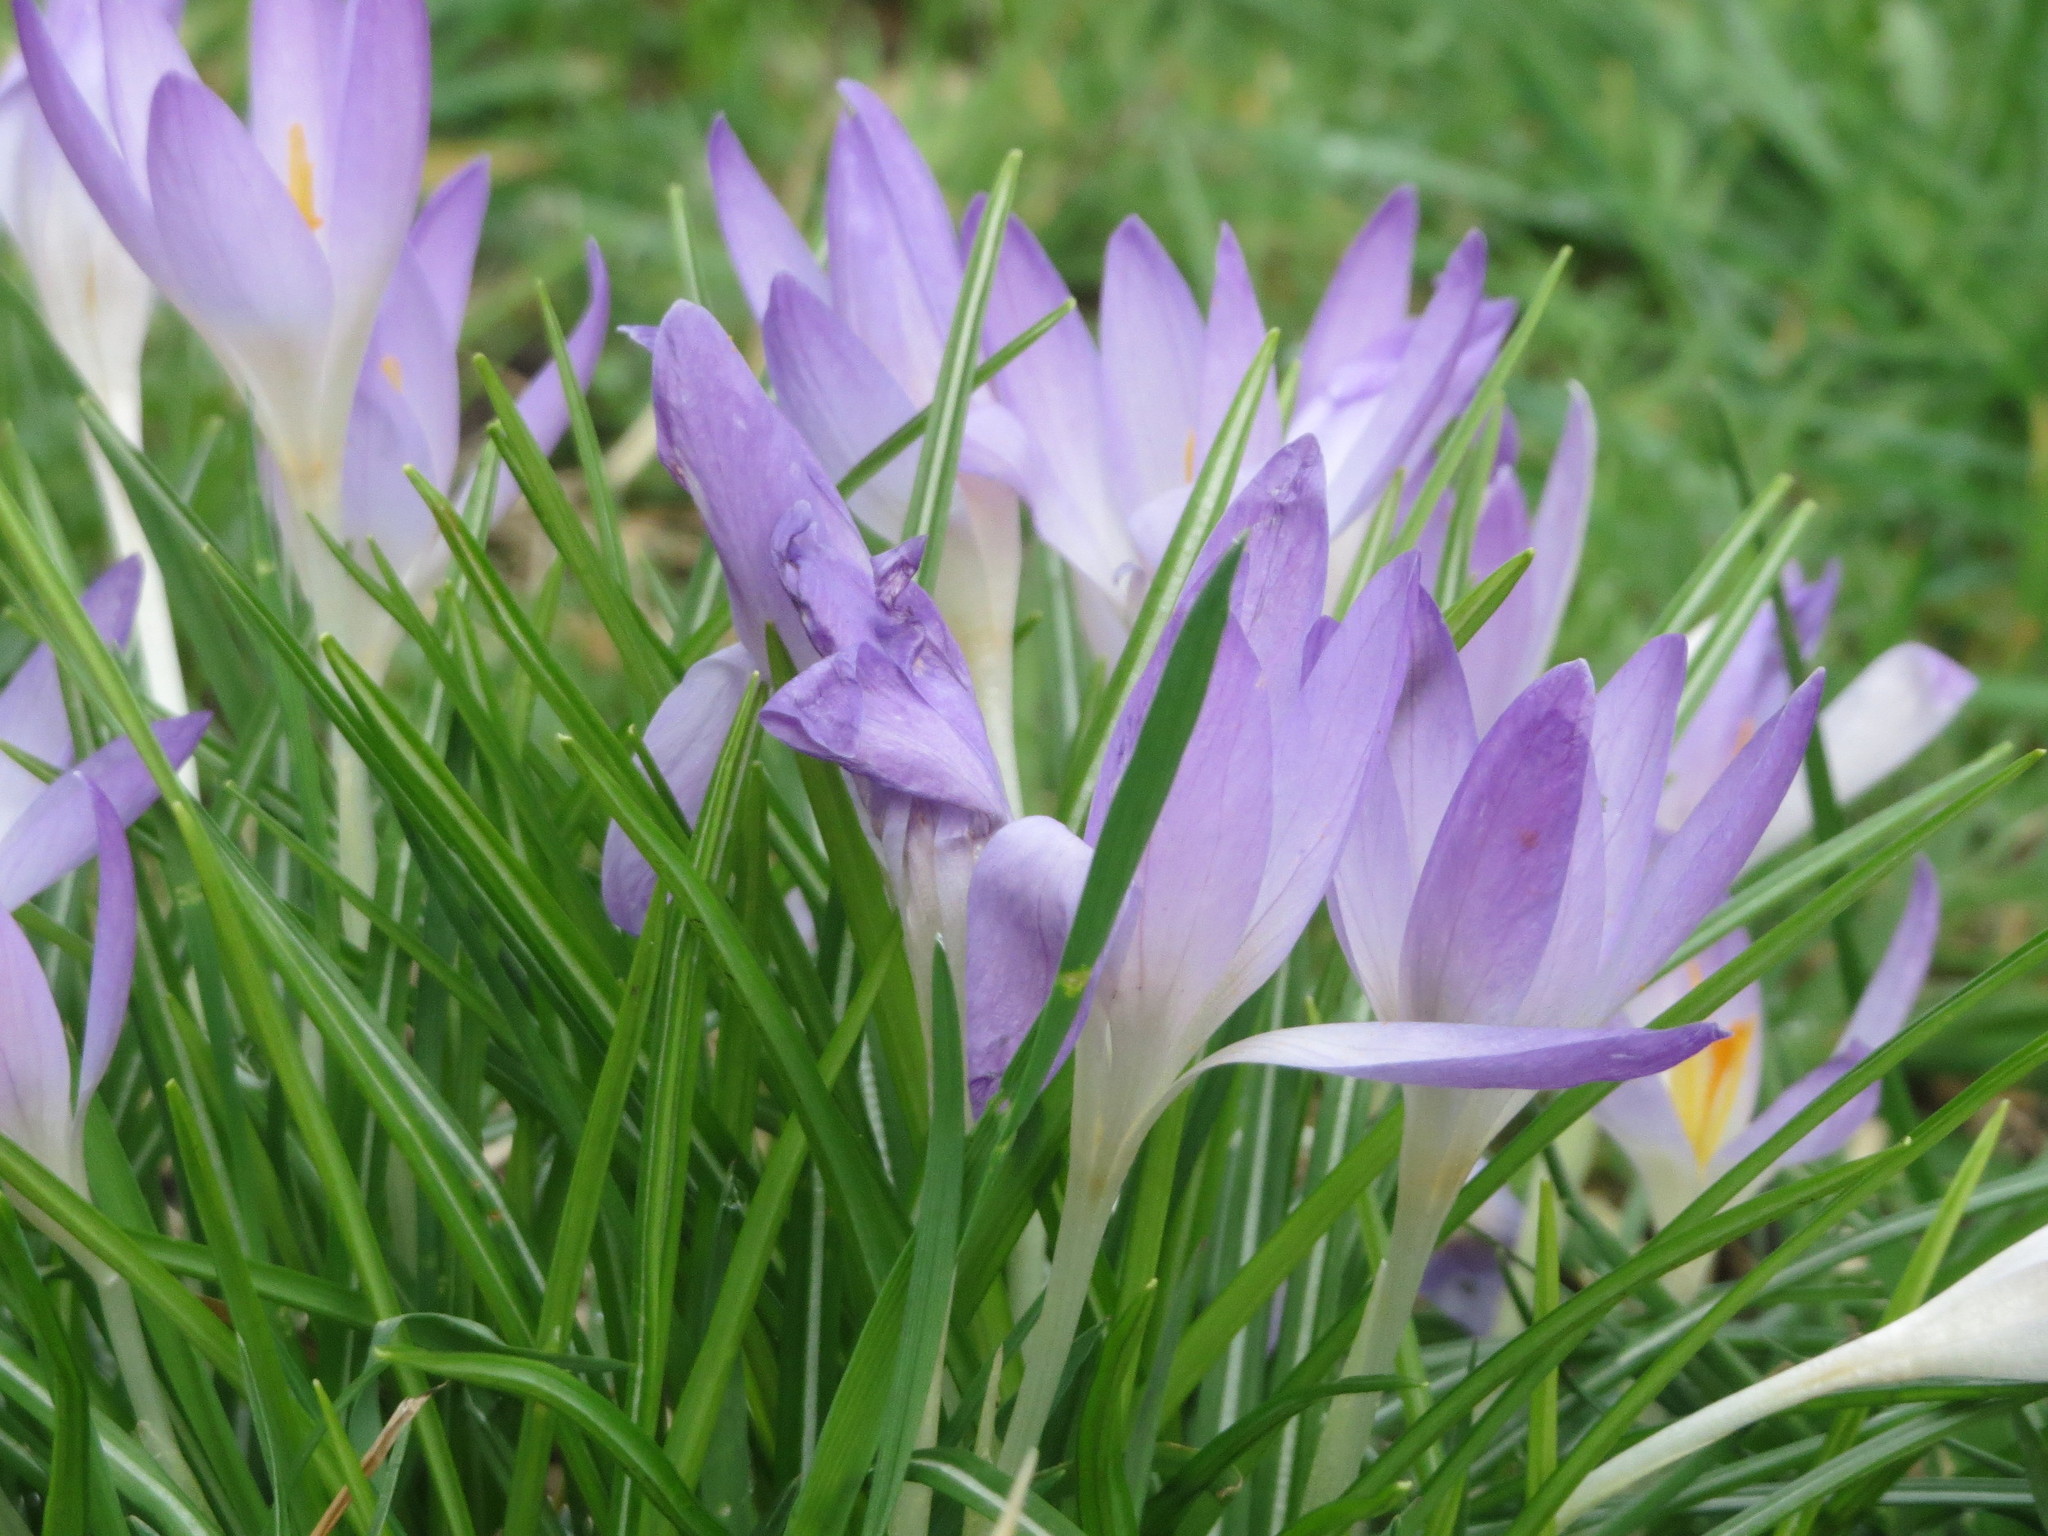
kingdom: Plantae
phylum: Tracheophyta
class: Liliopsida
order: Asparagales
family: Iridaceae
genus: Crocus
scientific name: Crocus tommasinianus
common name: Early crocus
